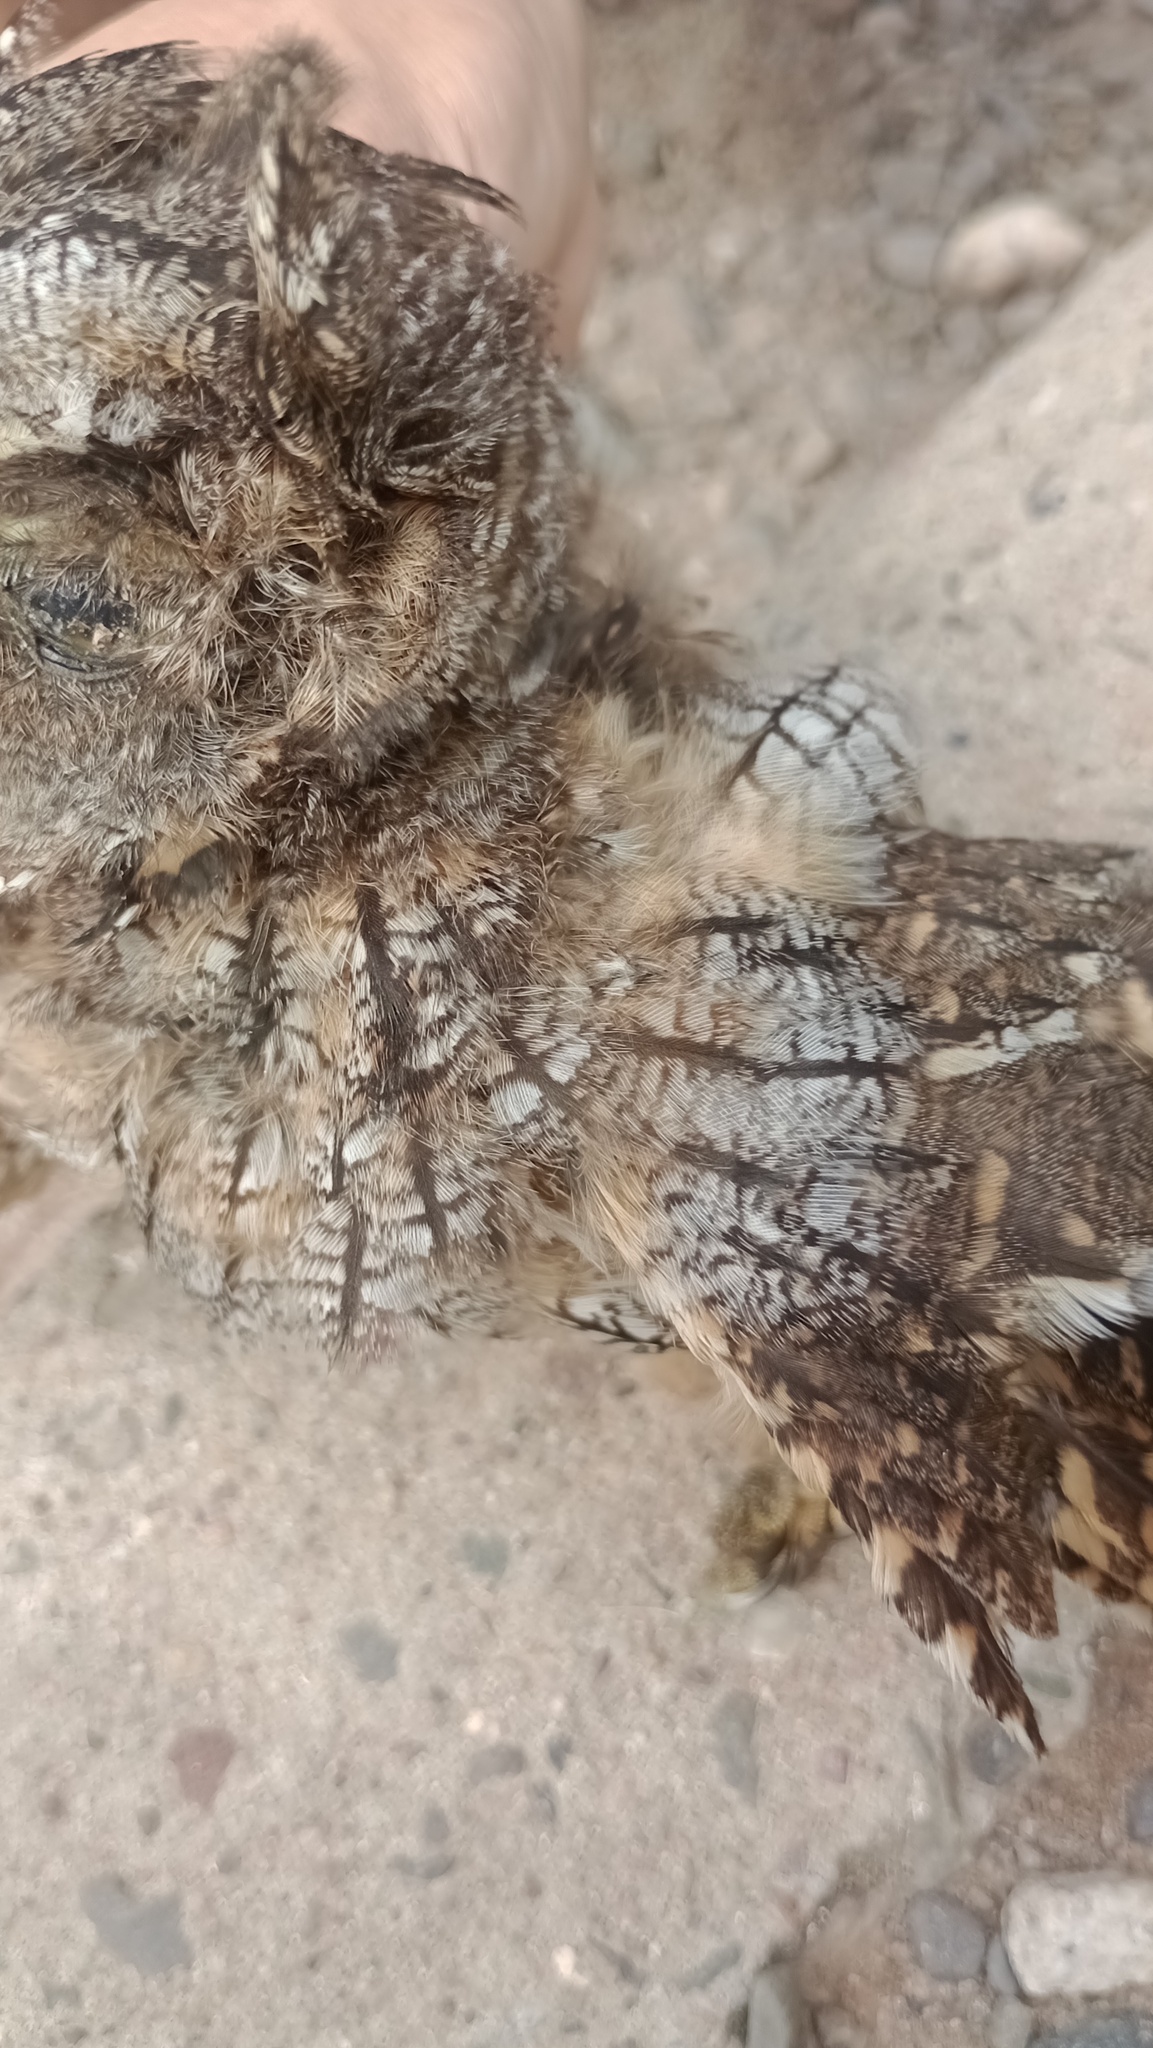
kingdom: Animalia
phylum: Chordata
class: Aves
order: Strigiformes
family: Strigidae
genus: Megascops
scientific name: Megascops choliba
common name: Tropical screech-owl
